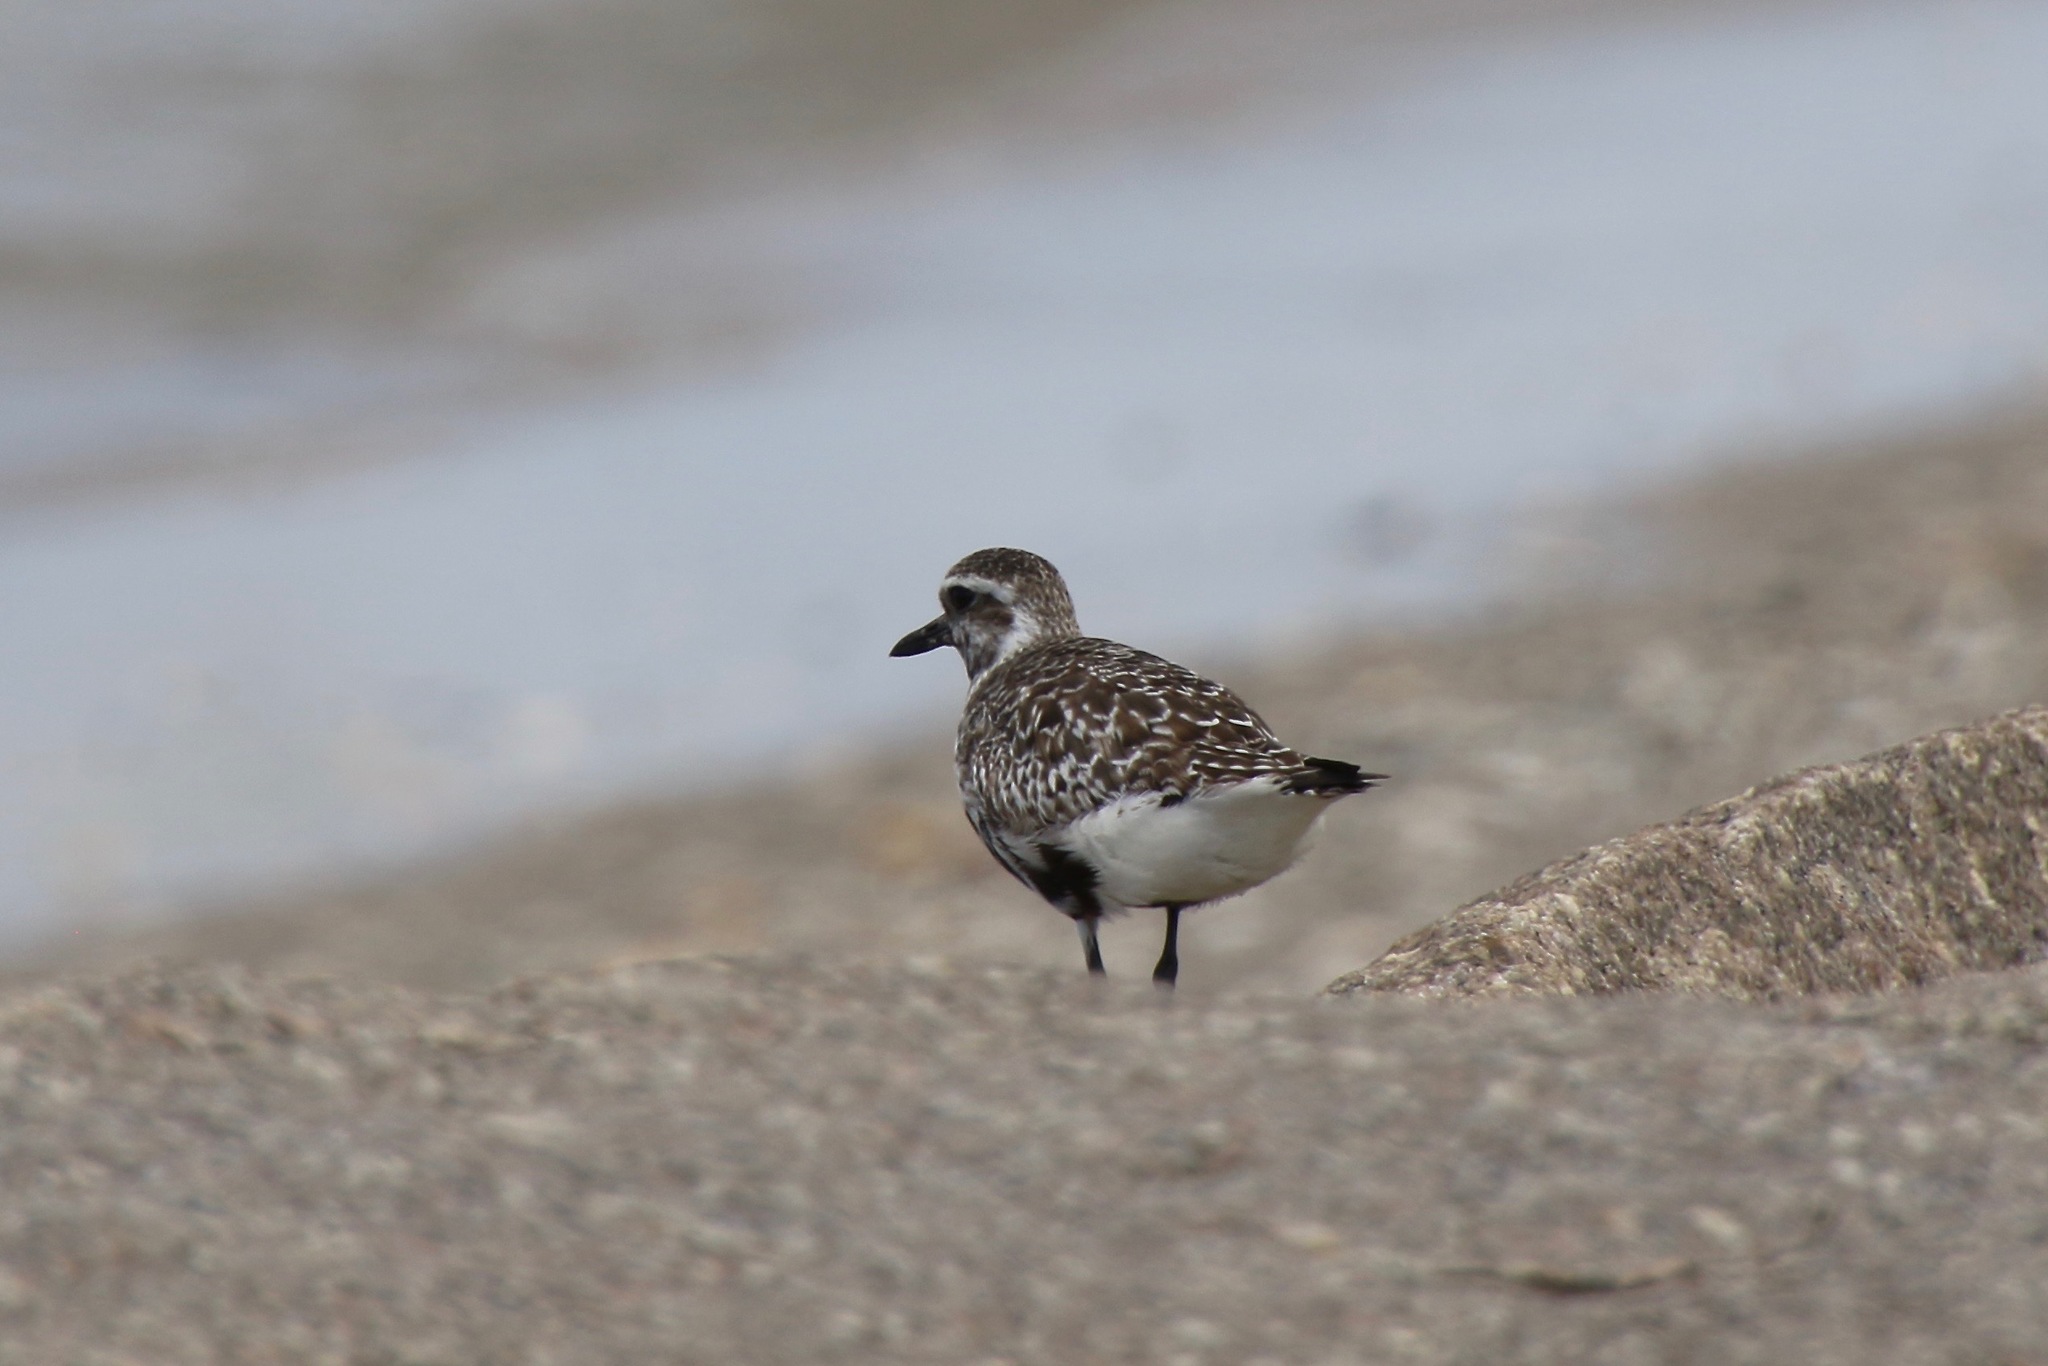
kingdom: Animalia
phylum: Chordata
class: Aves
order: Charadriiformes
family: Charadriidae
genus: Pluvialis
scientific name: Pluvialis squatarola
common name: Grey plover
